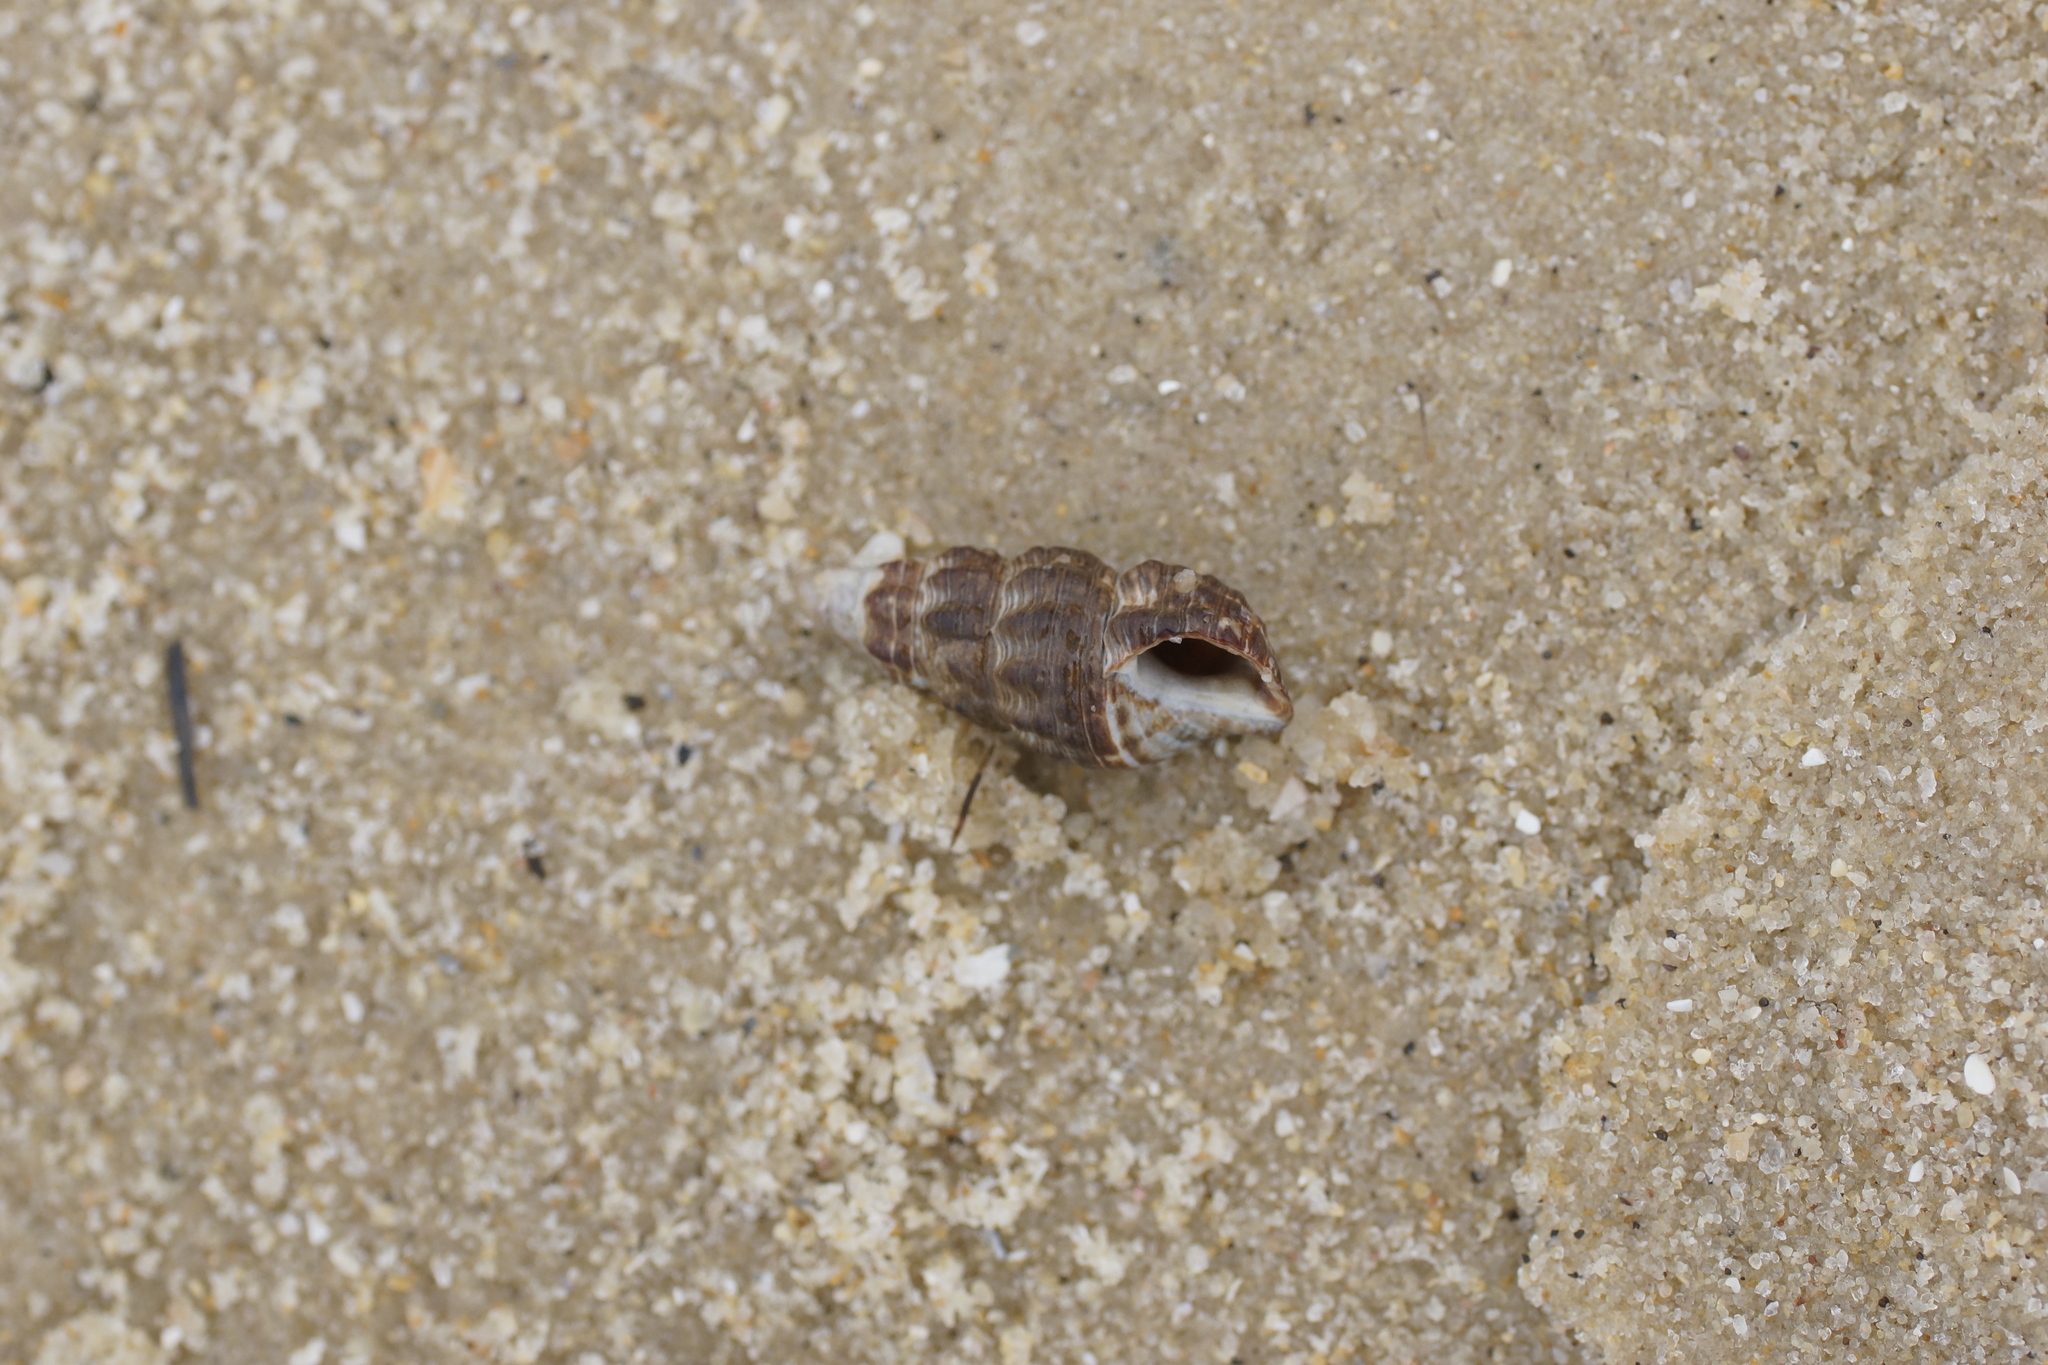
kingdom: Animalia
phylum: Mollusca
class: Gastropoda
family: Batillariidae
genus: Batillaria
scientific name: Batillaria australis
